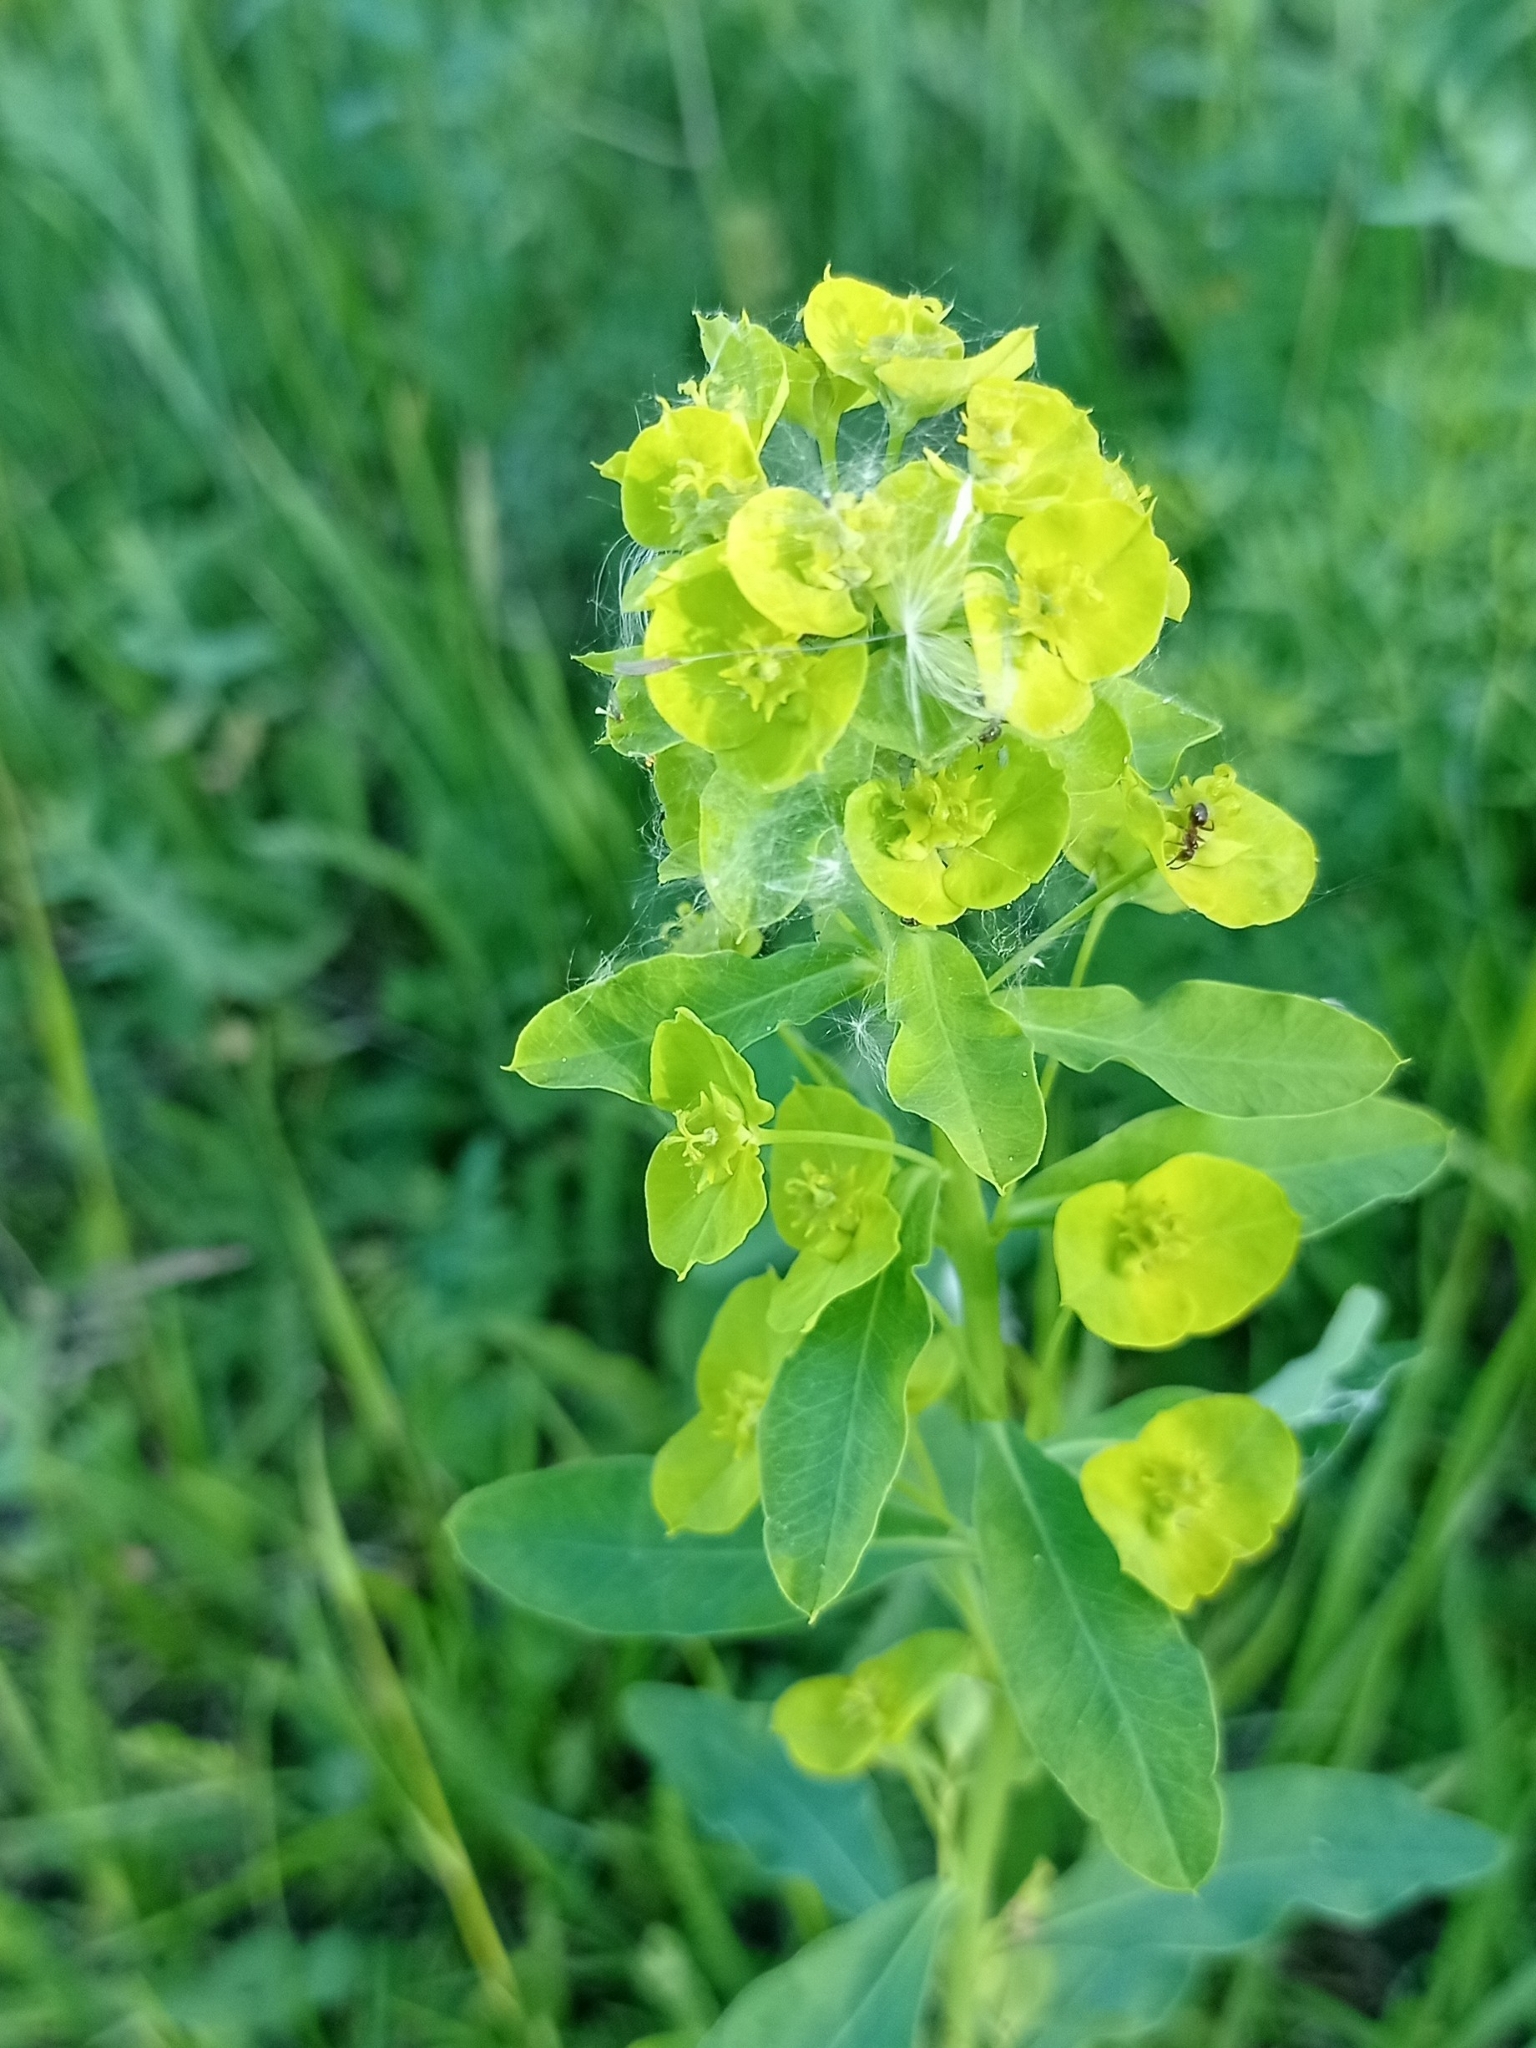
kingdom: Plantae
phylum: Tracheophyta
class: Magnoliopsida
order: Malpighiales
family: Euphorbiaceae
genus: Euphorbia
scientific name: Euphorbia esula
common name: Leafy spurge
